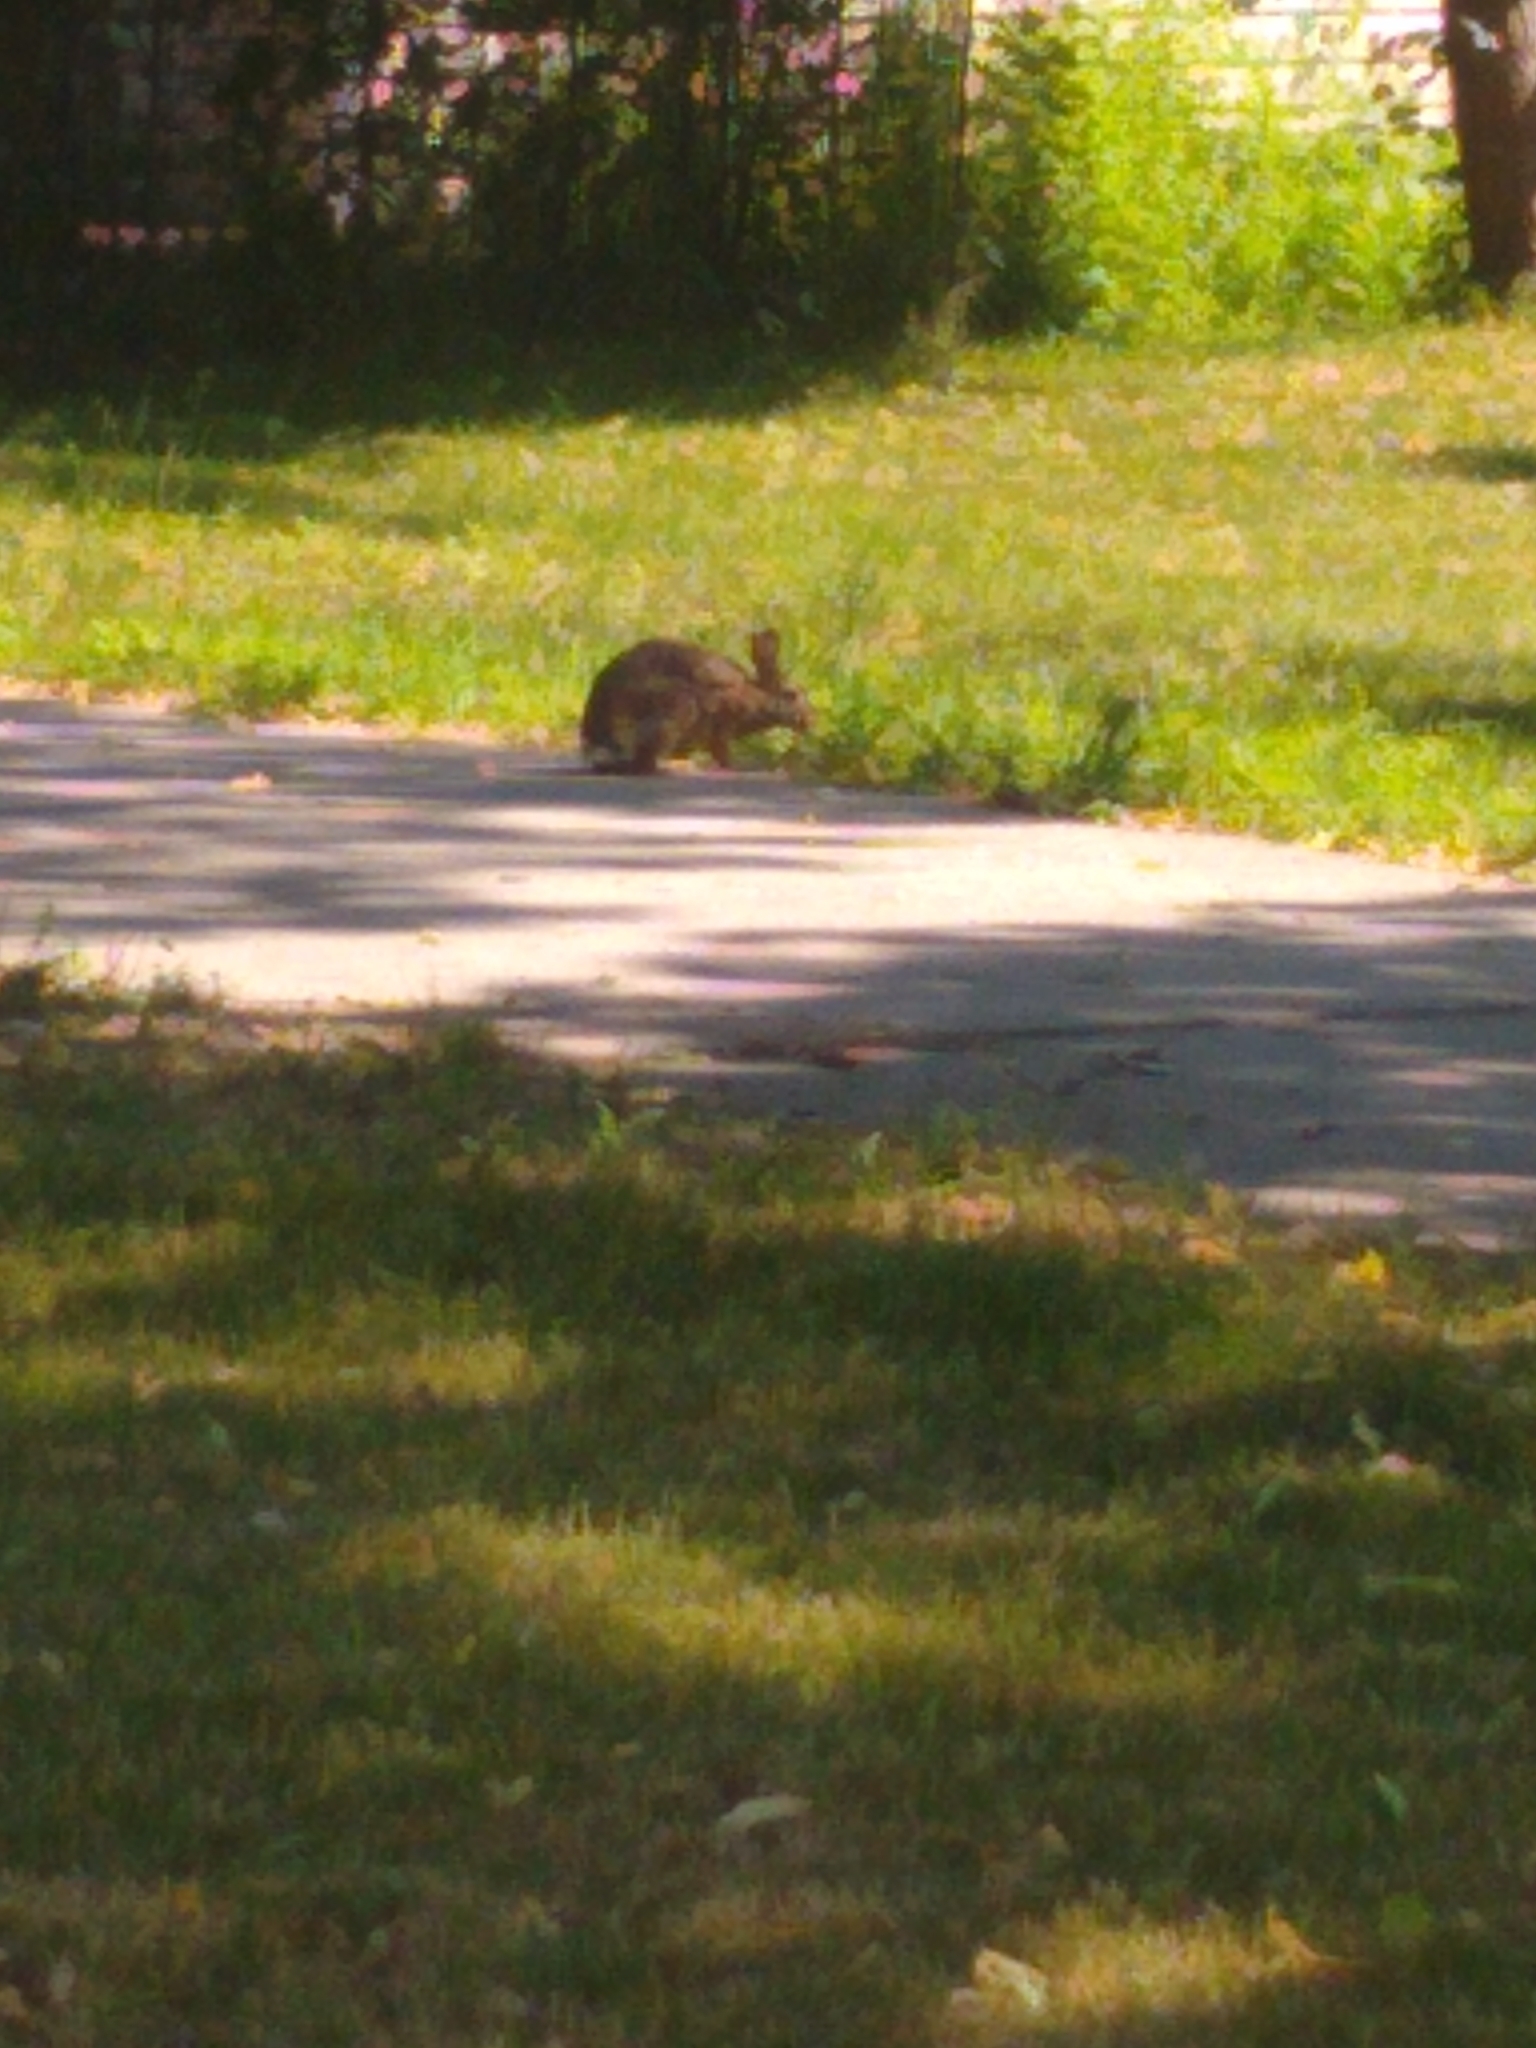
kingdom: Animalia
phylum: Chordata
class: Mammalia
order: Lagomorpha
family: Leporidae
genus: Sylvilagus
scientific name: Sylvilagus floridanus
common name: Eastern cottontail
